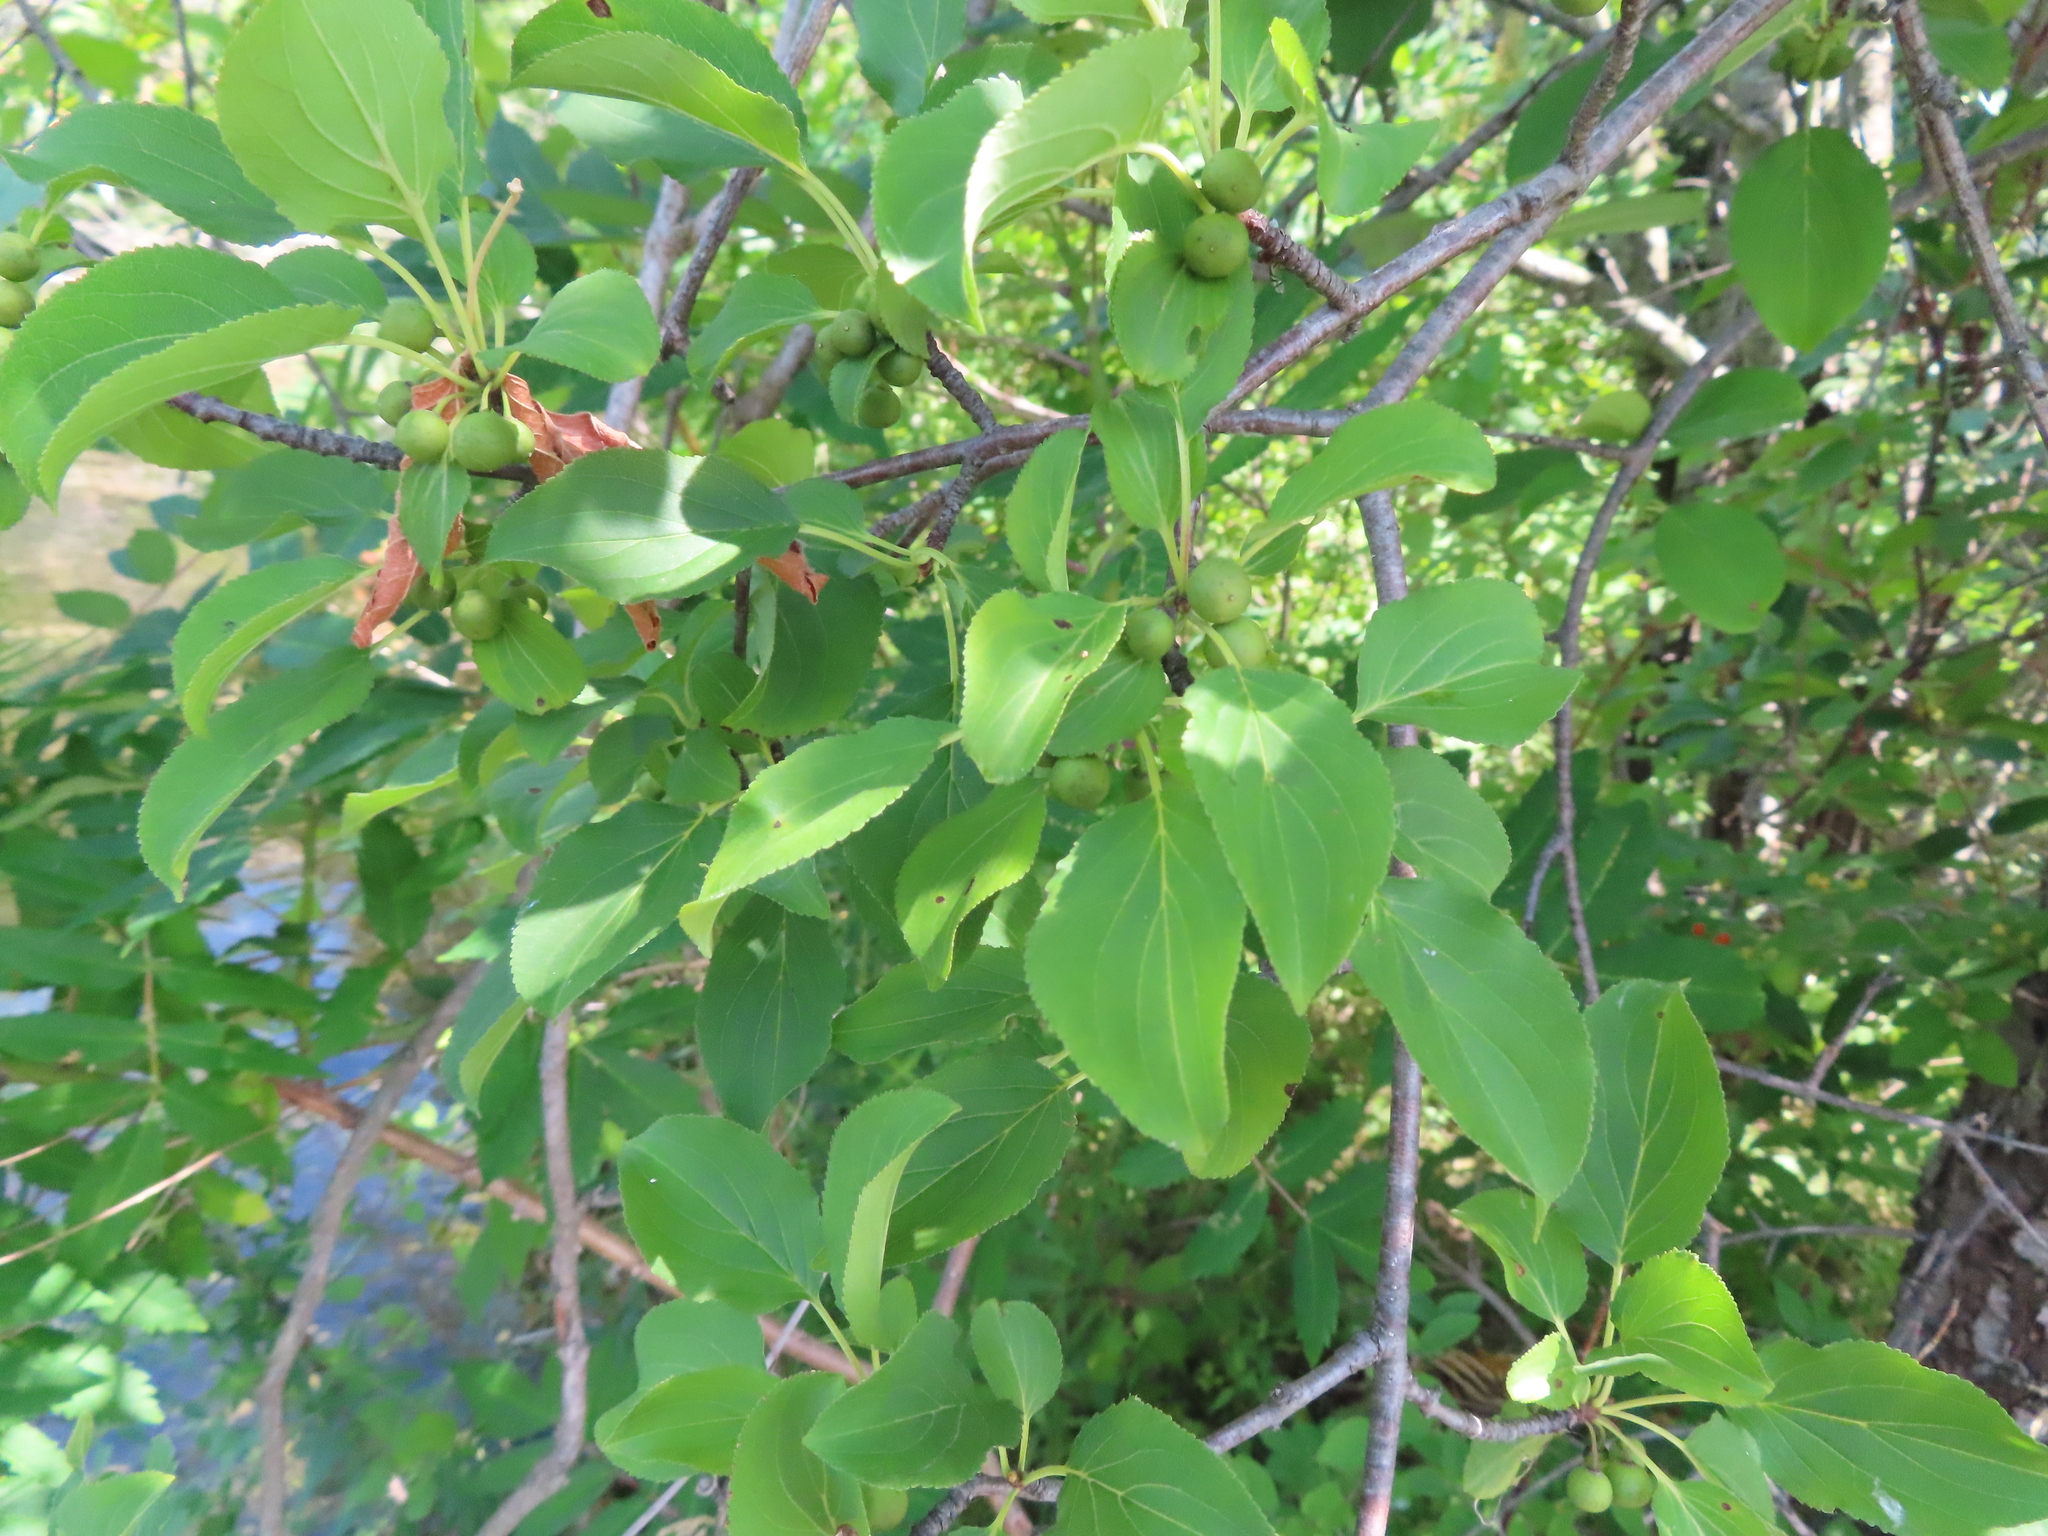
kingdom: Plantae
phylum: Tracheophyta
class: Magnoliopsida
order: Rosales
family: Rhamnaceae
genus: Rhamnus
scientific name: Rhamnus cathartica
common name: Common buckthorn
